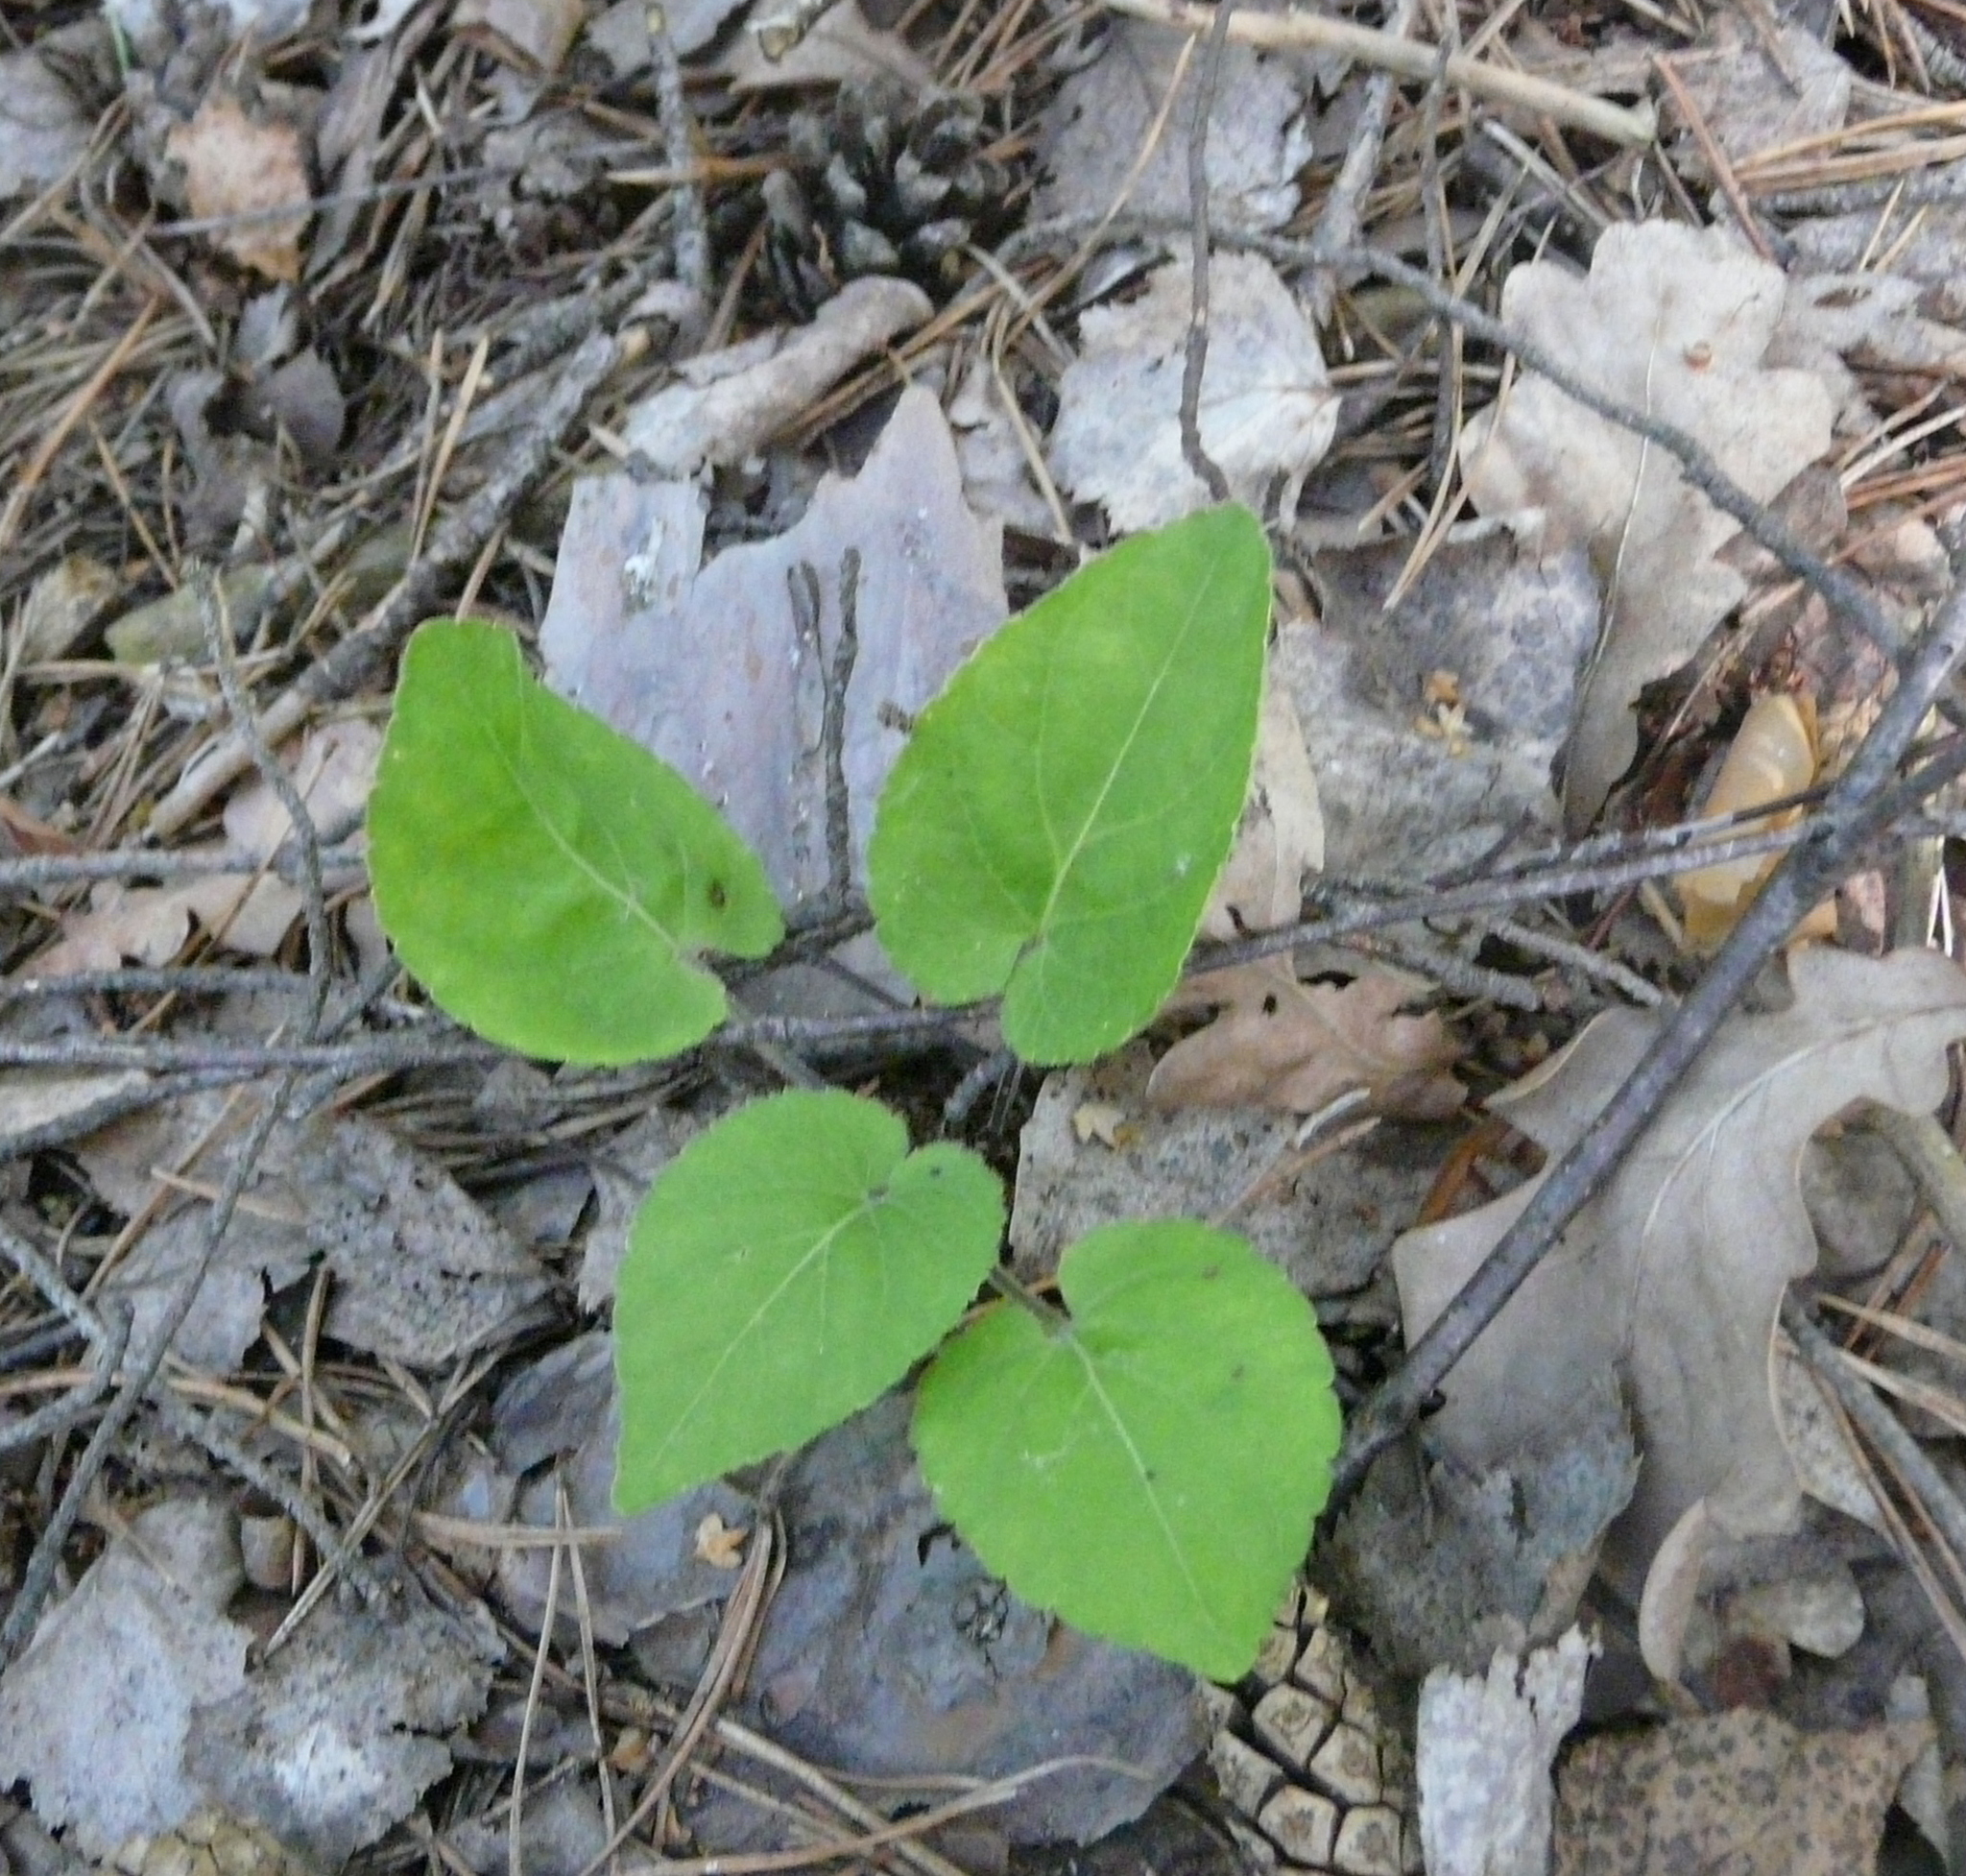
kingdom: Plantae
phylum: Tracheophyta
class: Magnoliopsida
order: Malpighiales
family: Violaceae
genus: Viola
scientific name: Viola collina
